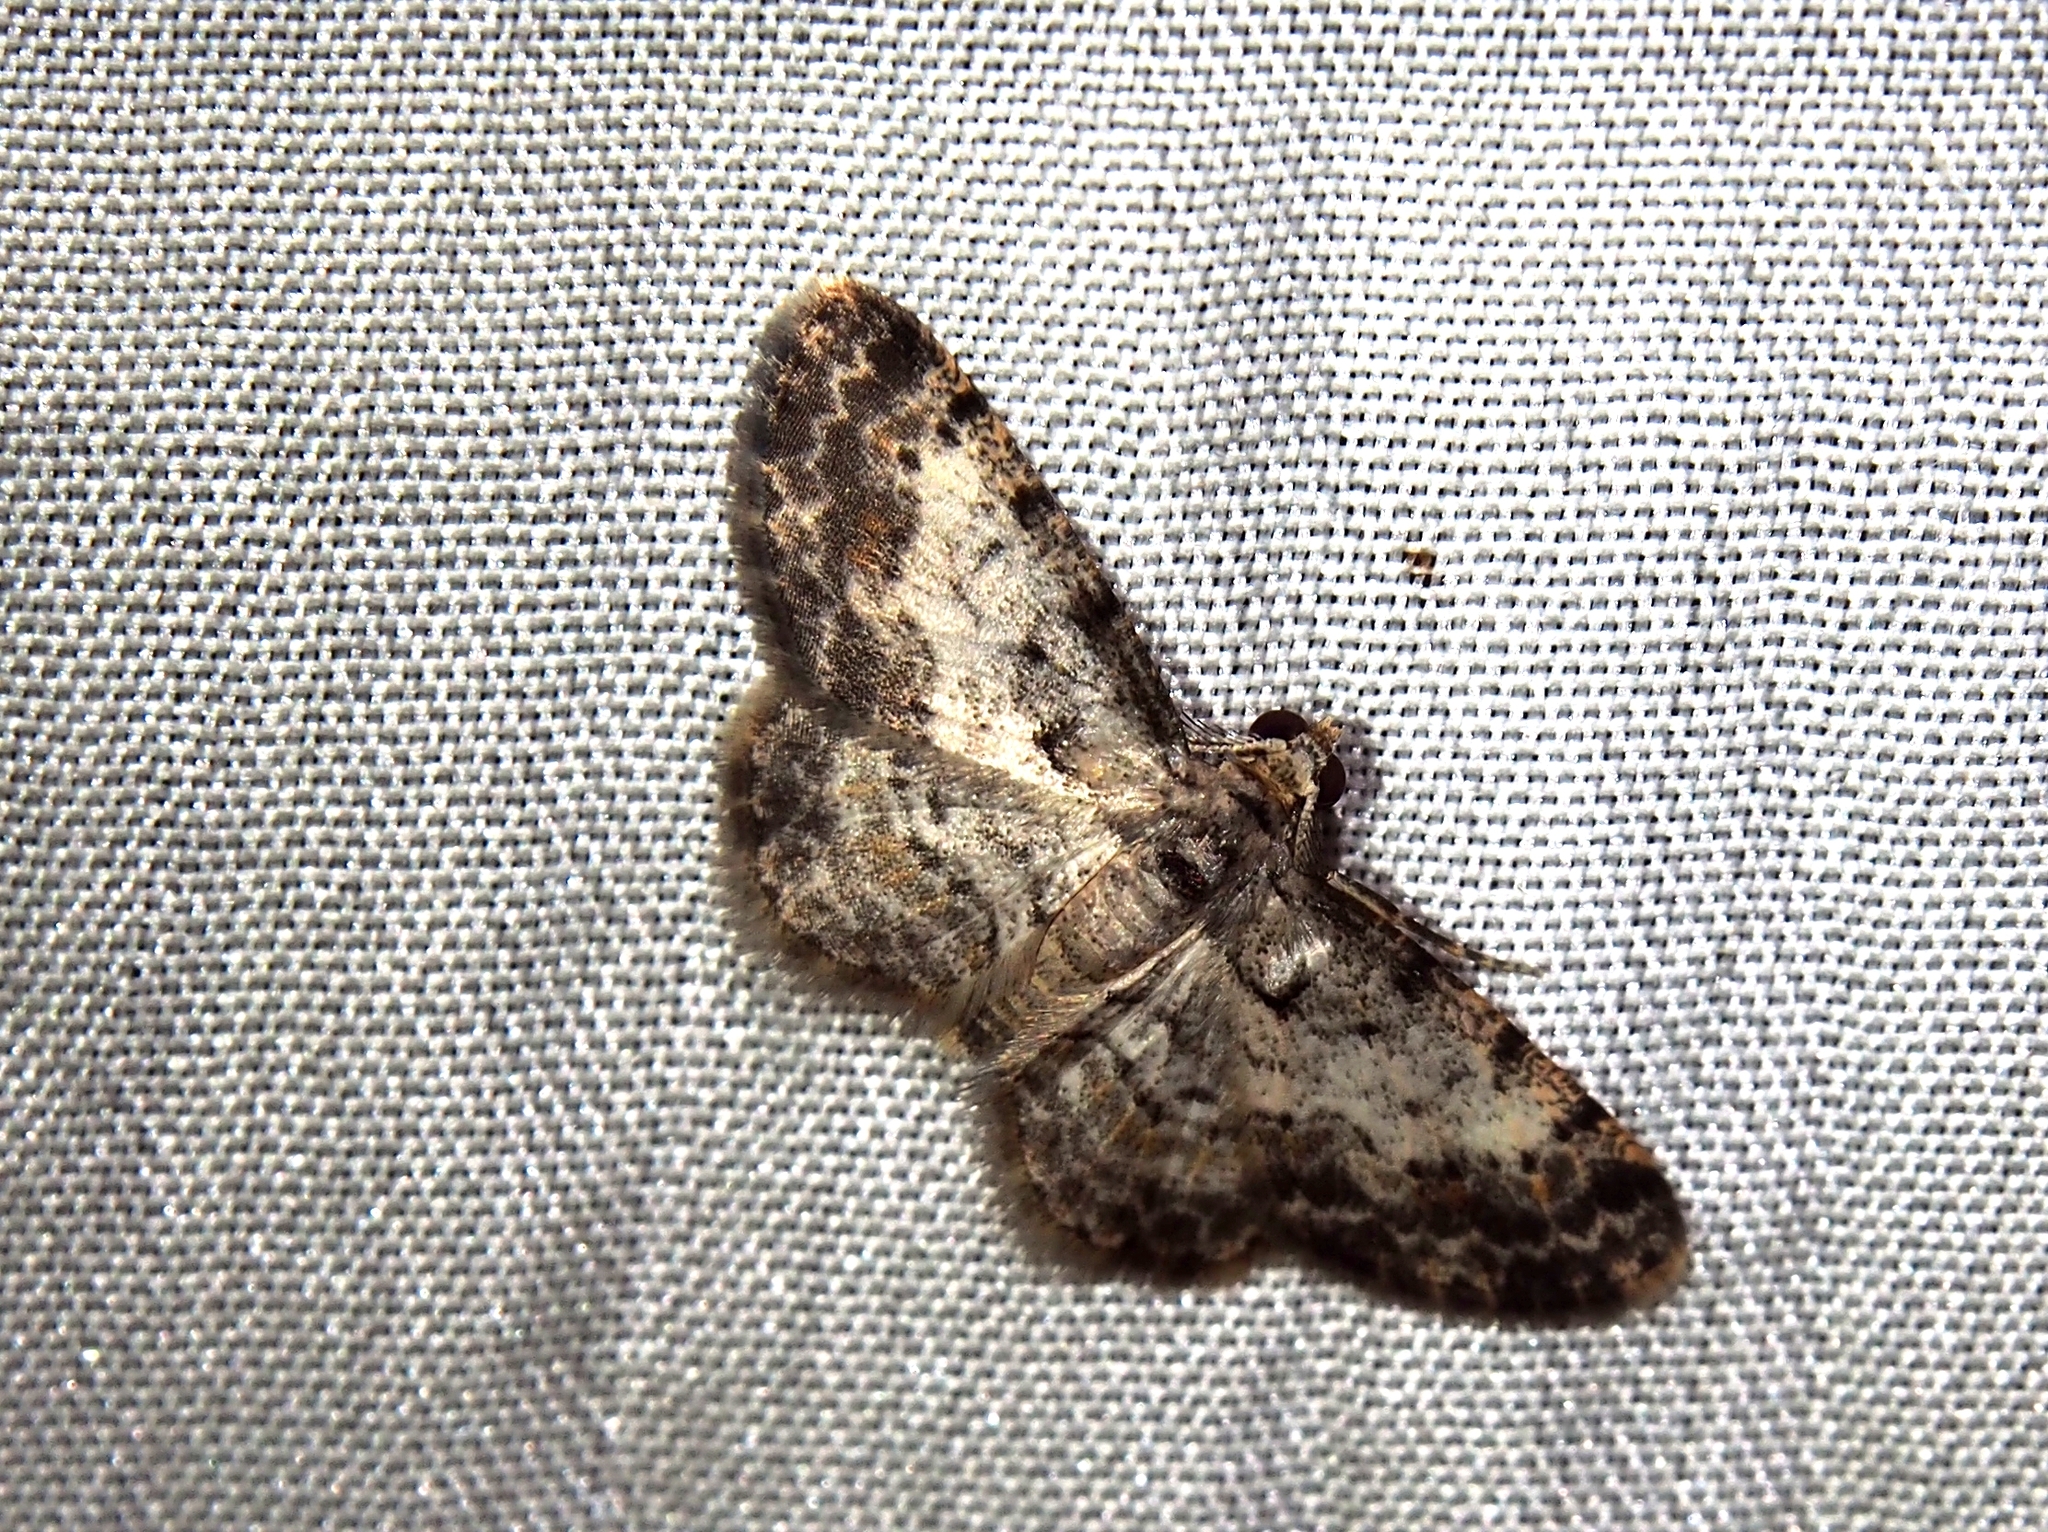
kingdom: Animalia
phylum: Arthropoda
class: Insecta
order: Lepidoptera
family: Geometridae
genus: Physocleora
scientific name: Physocleora taeniata
